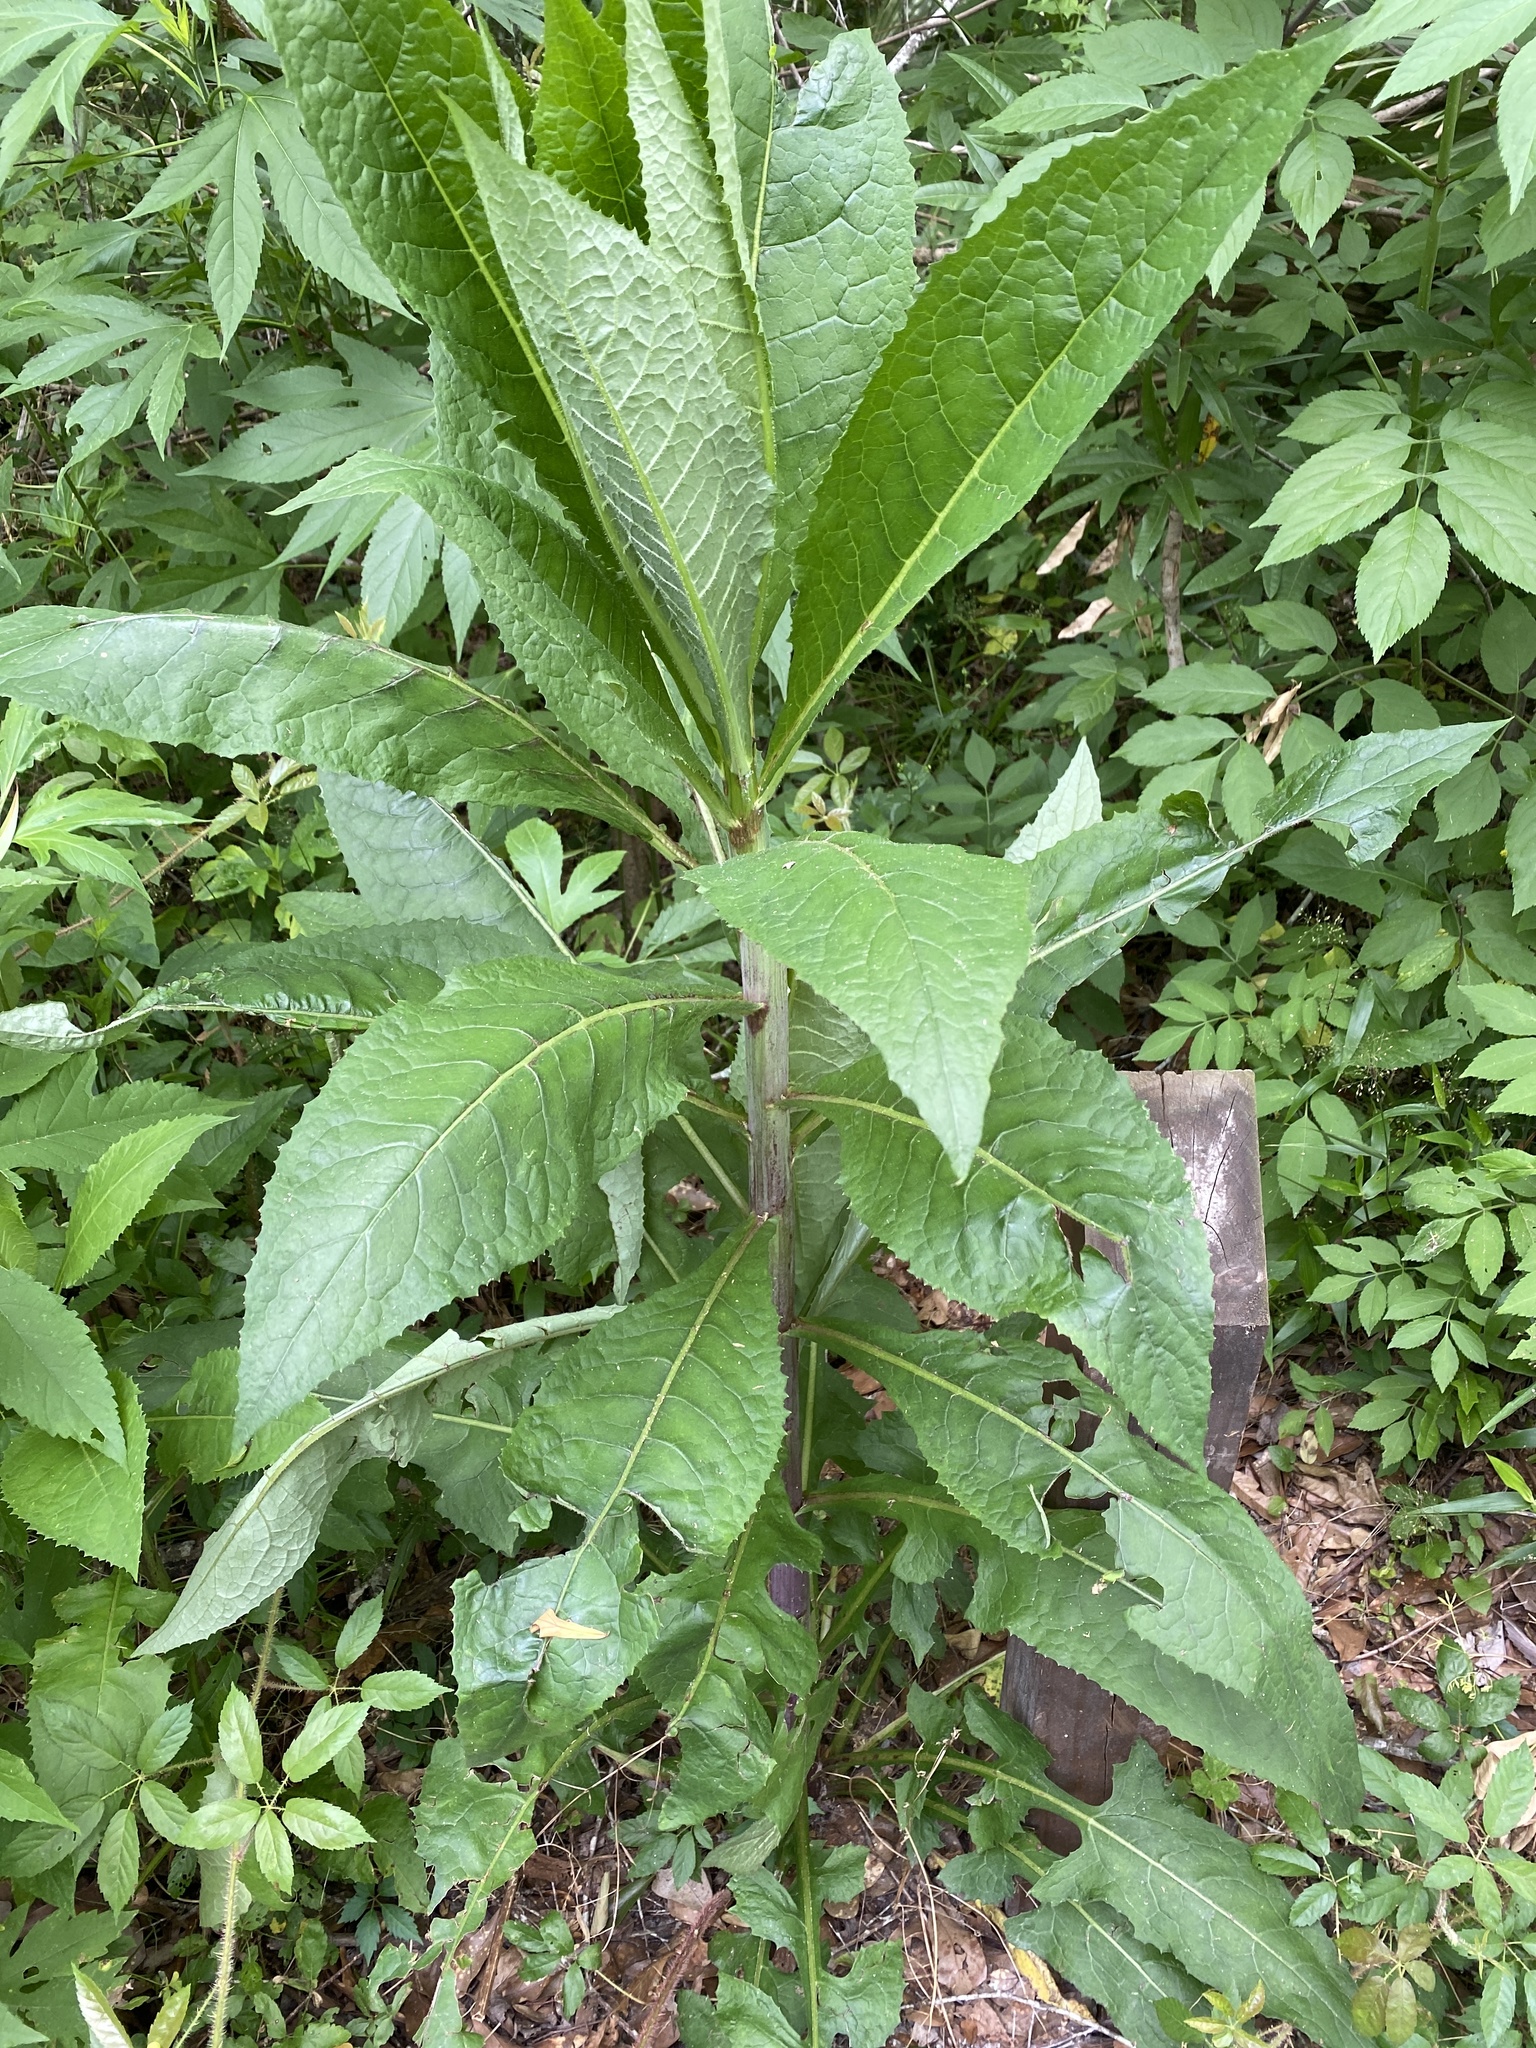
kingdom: Plantae
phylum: Tracheophyta
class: Magnoliopsida
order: Asterales
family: Asteraceae
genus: Lactuca
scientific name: Lactuca
